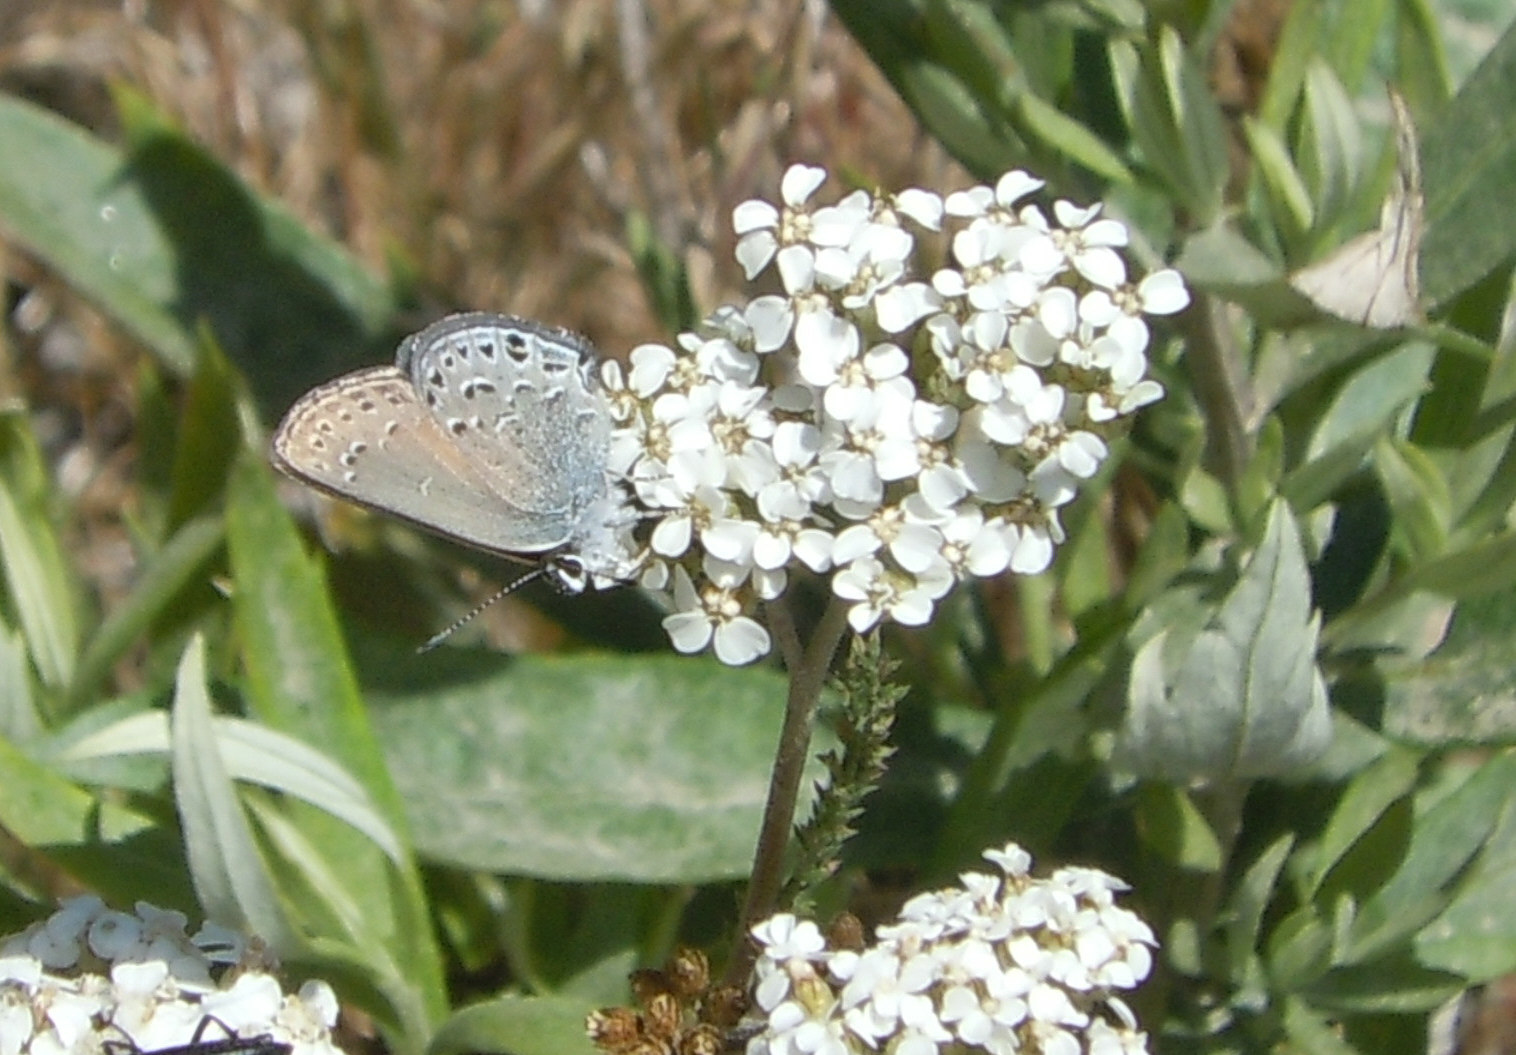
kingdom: Animalia
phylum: Arthropoda
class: Insecta
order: Lepidoptera
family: Lycaenidae
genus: Satyrium
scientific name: Satyrium behrii
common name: Behr's hairstreak
